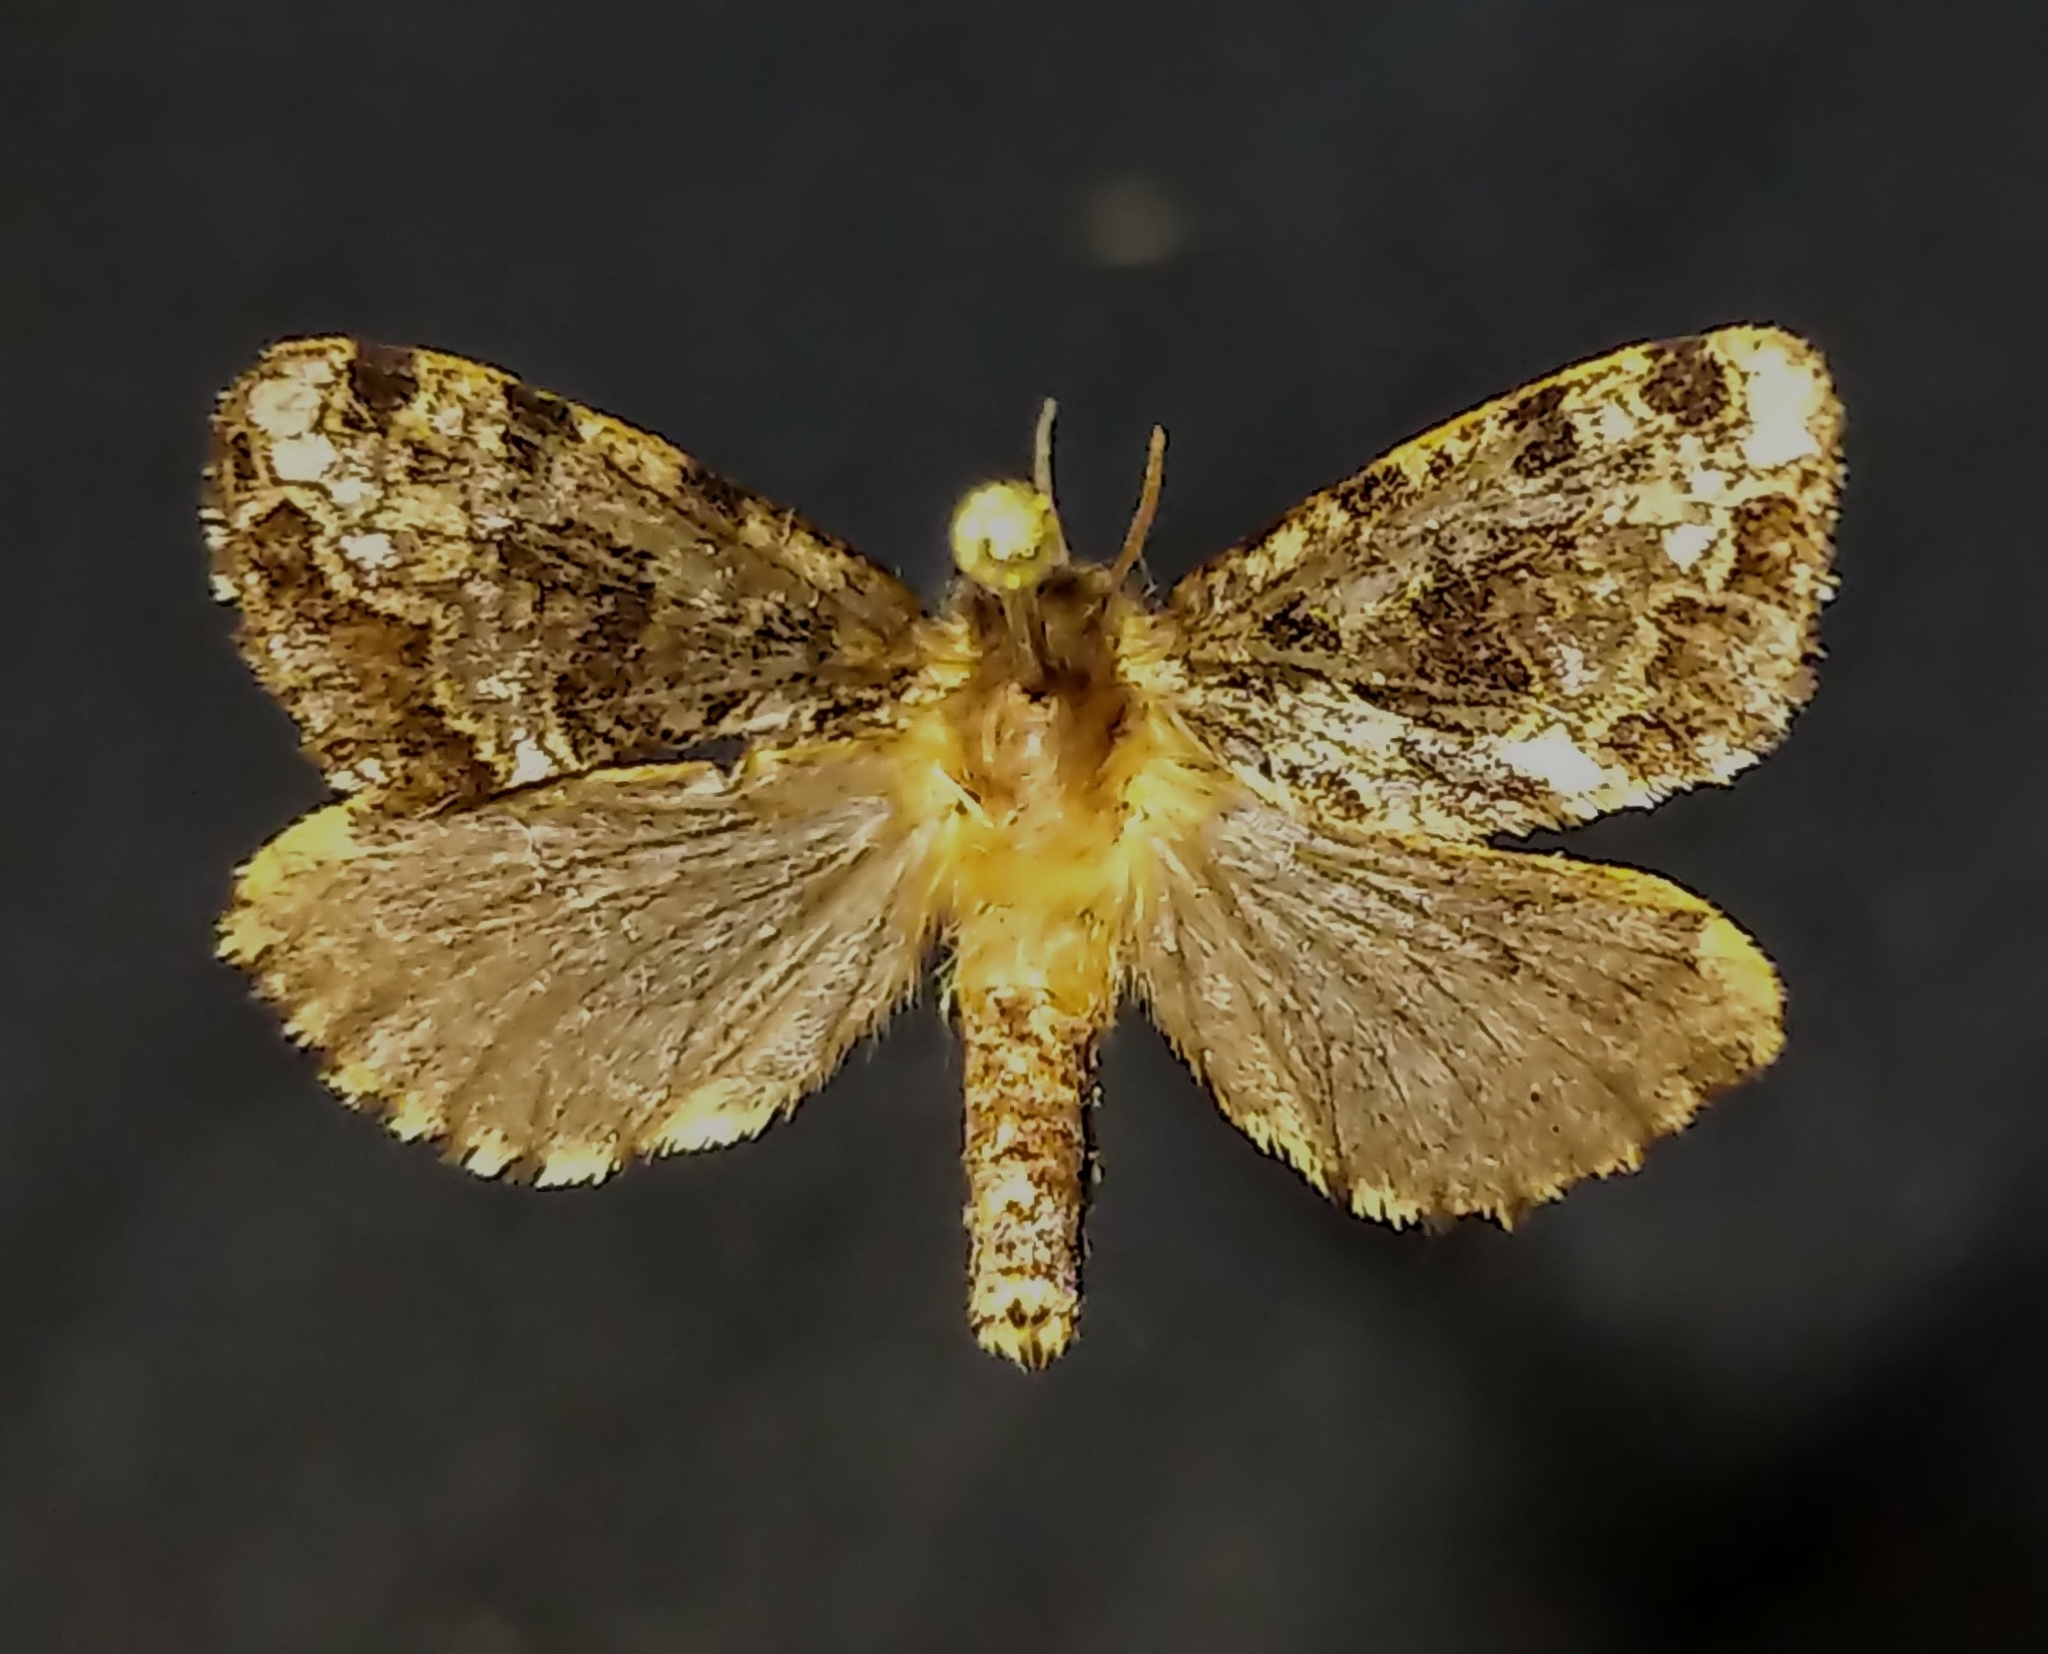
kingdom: Animalia
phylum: Arthropoda
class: Insecta
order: Lepidoptera
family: Hepialidae
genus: Korscheltellus
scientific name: Korscheltellus gracilis
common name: Conifer swift moth
